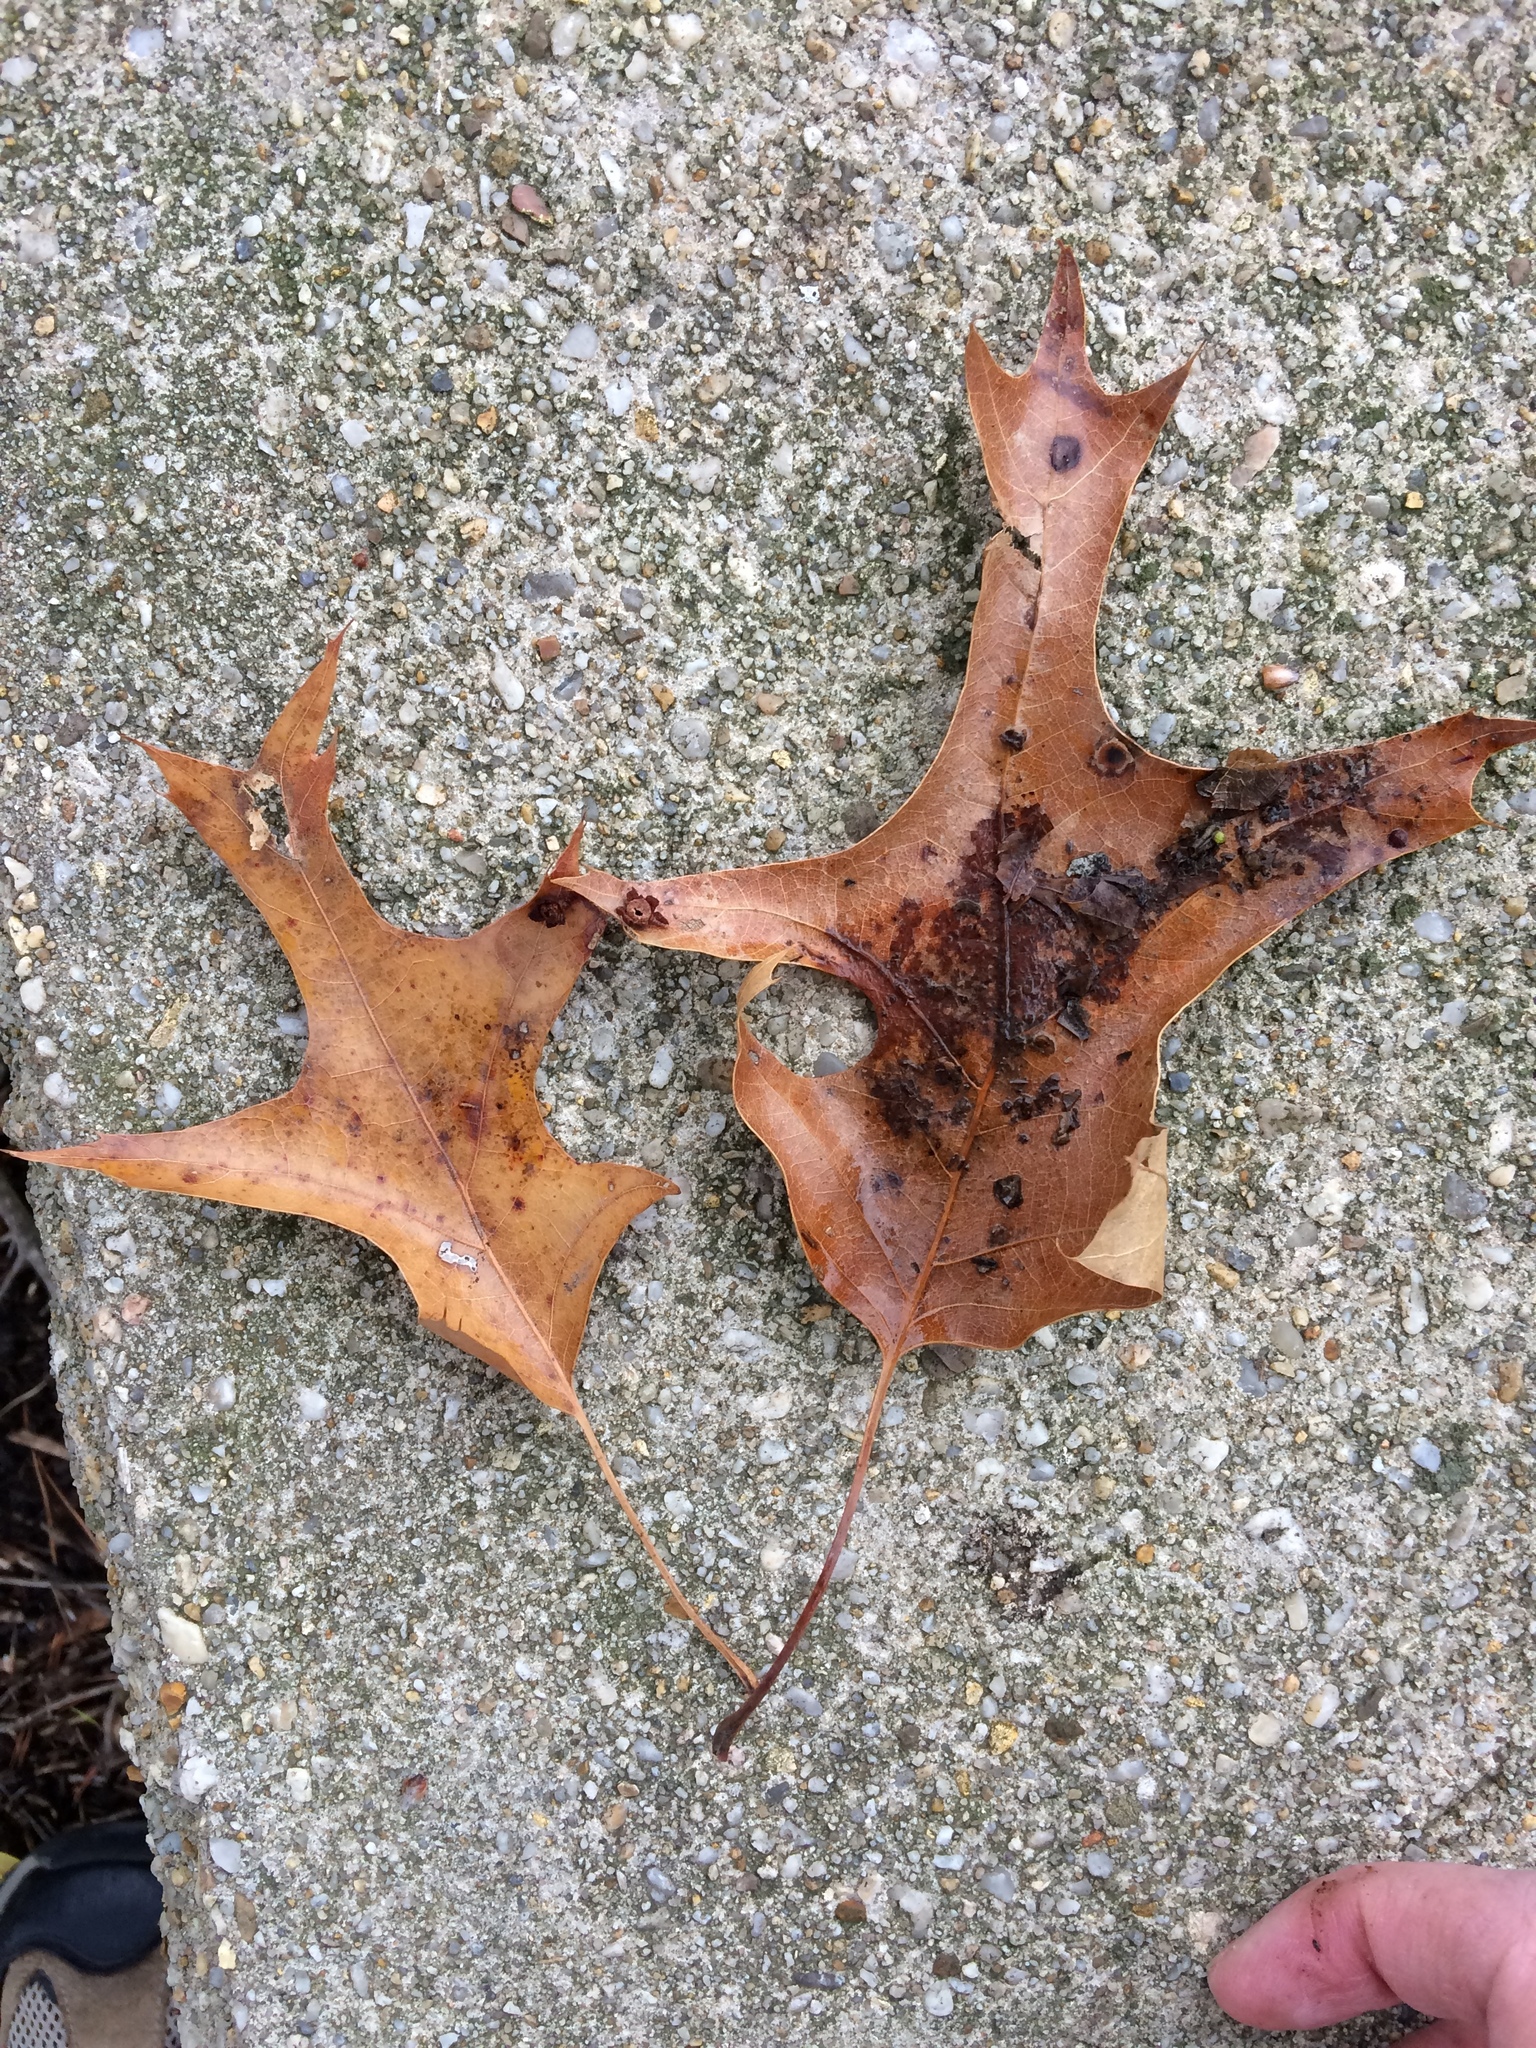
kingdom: Plantae
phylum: Tracheophyta
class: Magnoliopsida
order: Fagales
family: Fagaceae
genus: Quercus
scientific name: Quercus falcata
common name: Southern red oak
